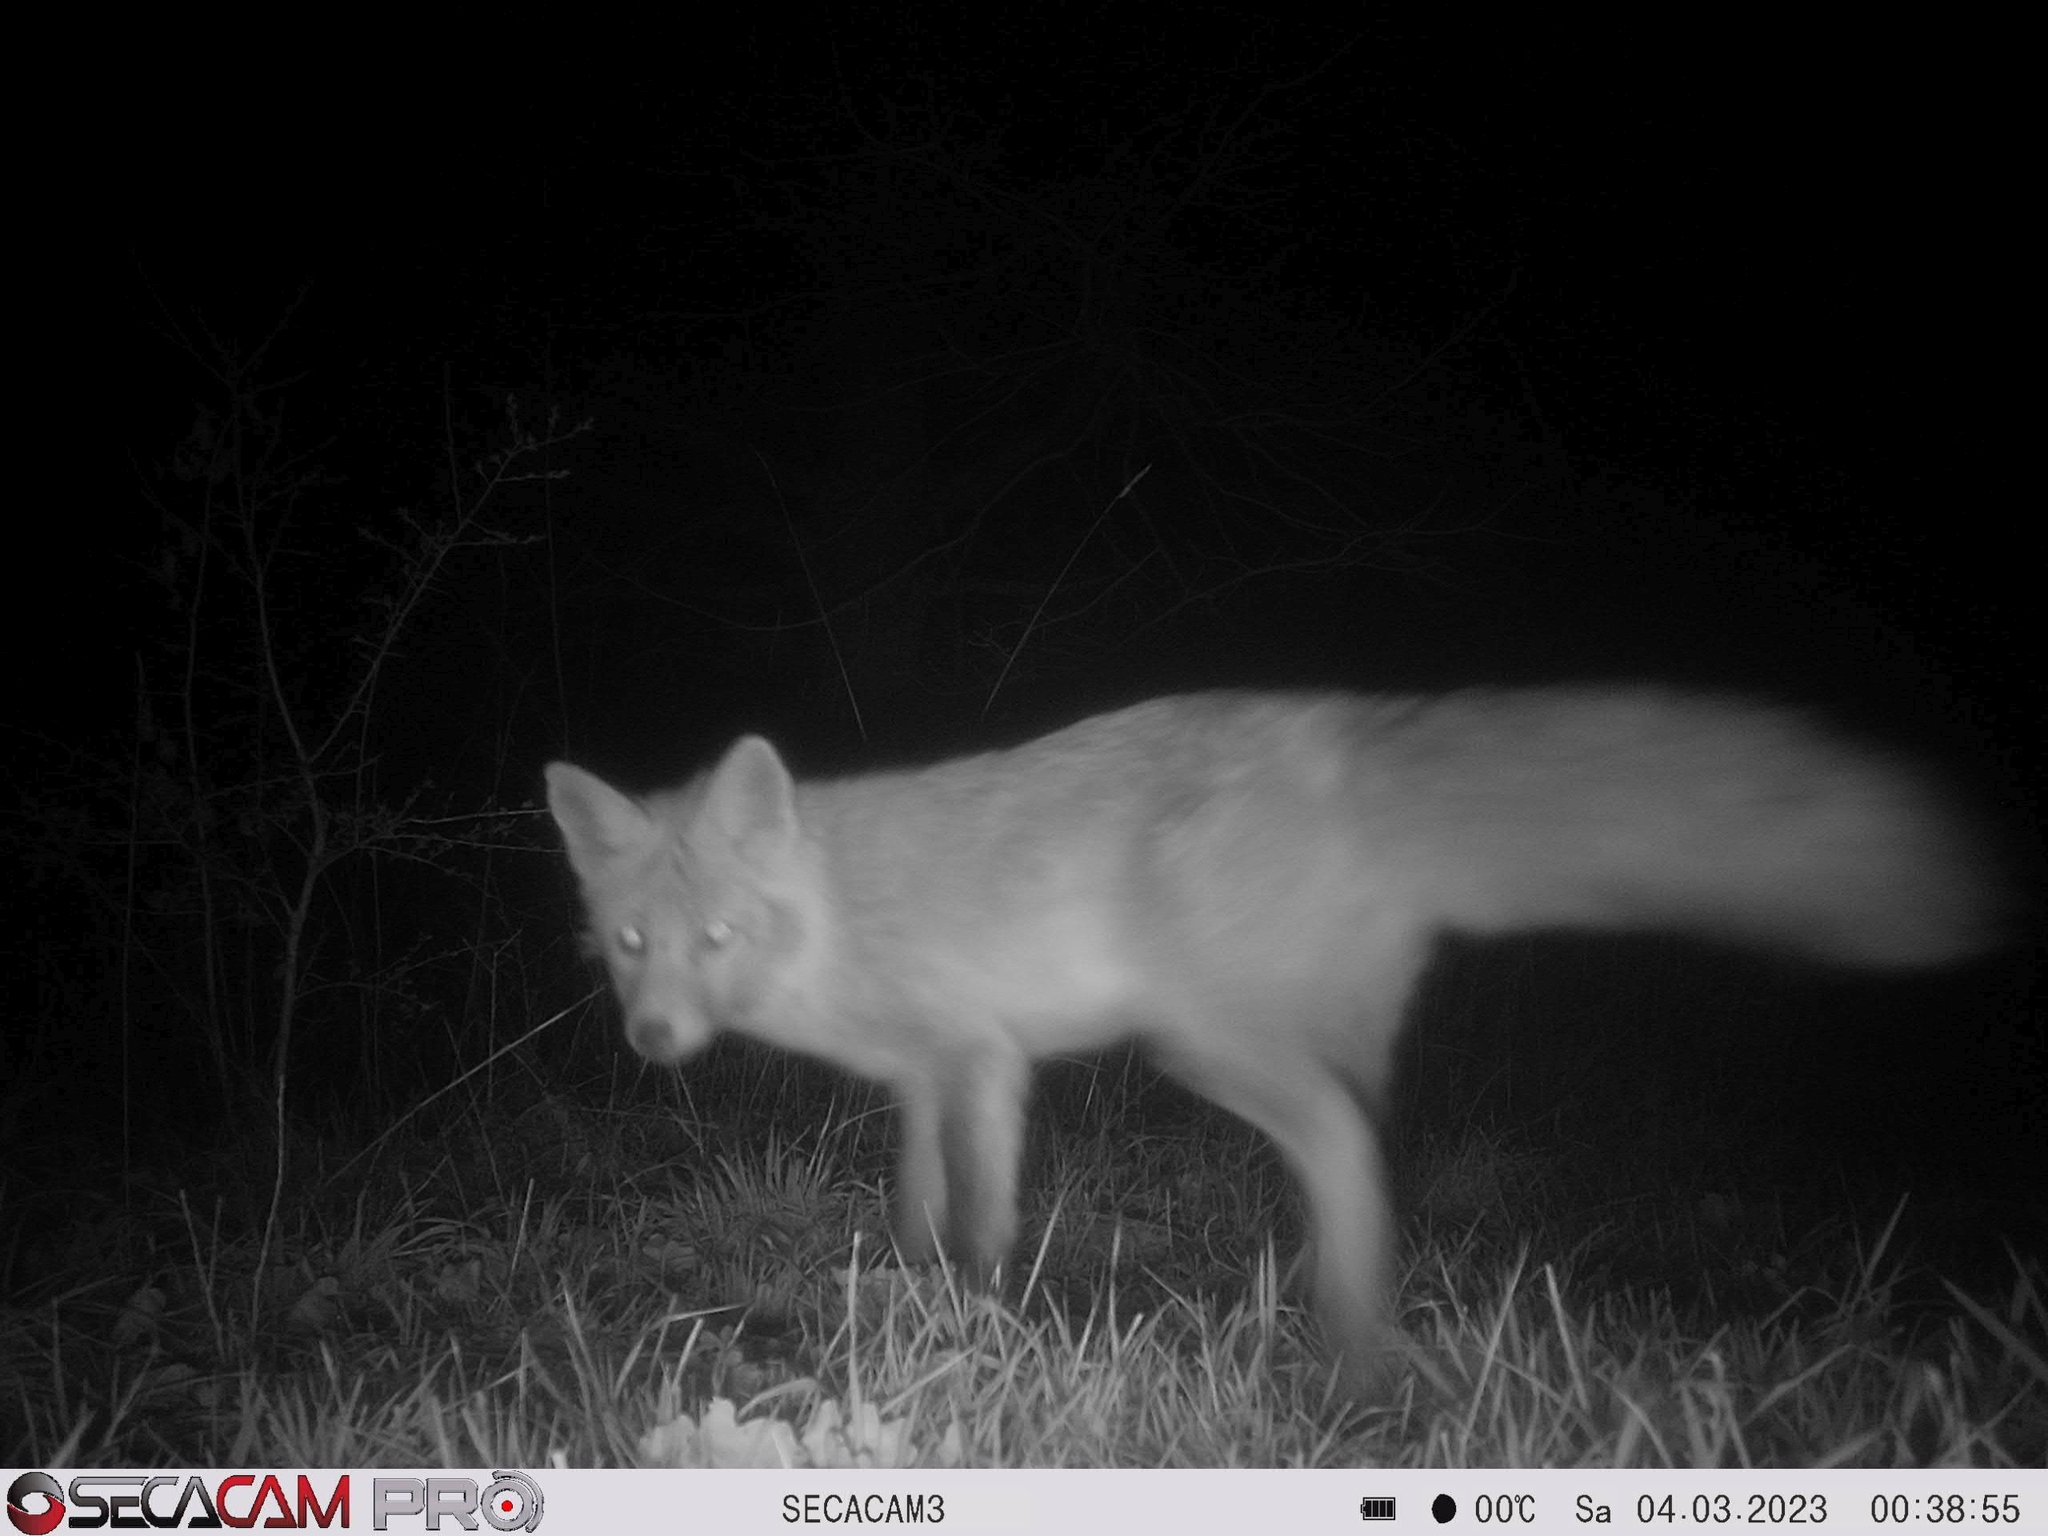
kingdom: Animalia
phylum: Chordata
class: Mammalia
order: Carnivora
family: Canidae
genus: Vulpes
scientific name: Vulpes vulpes
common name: Red fox
